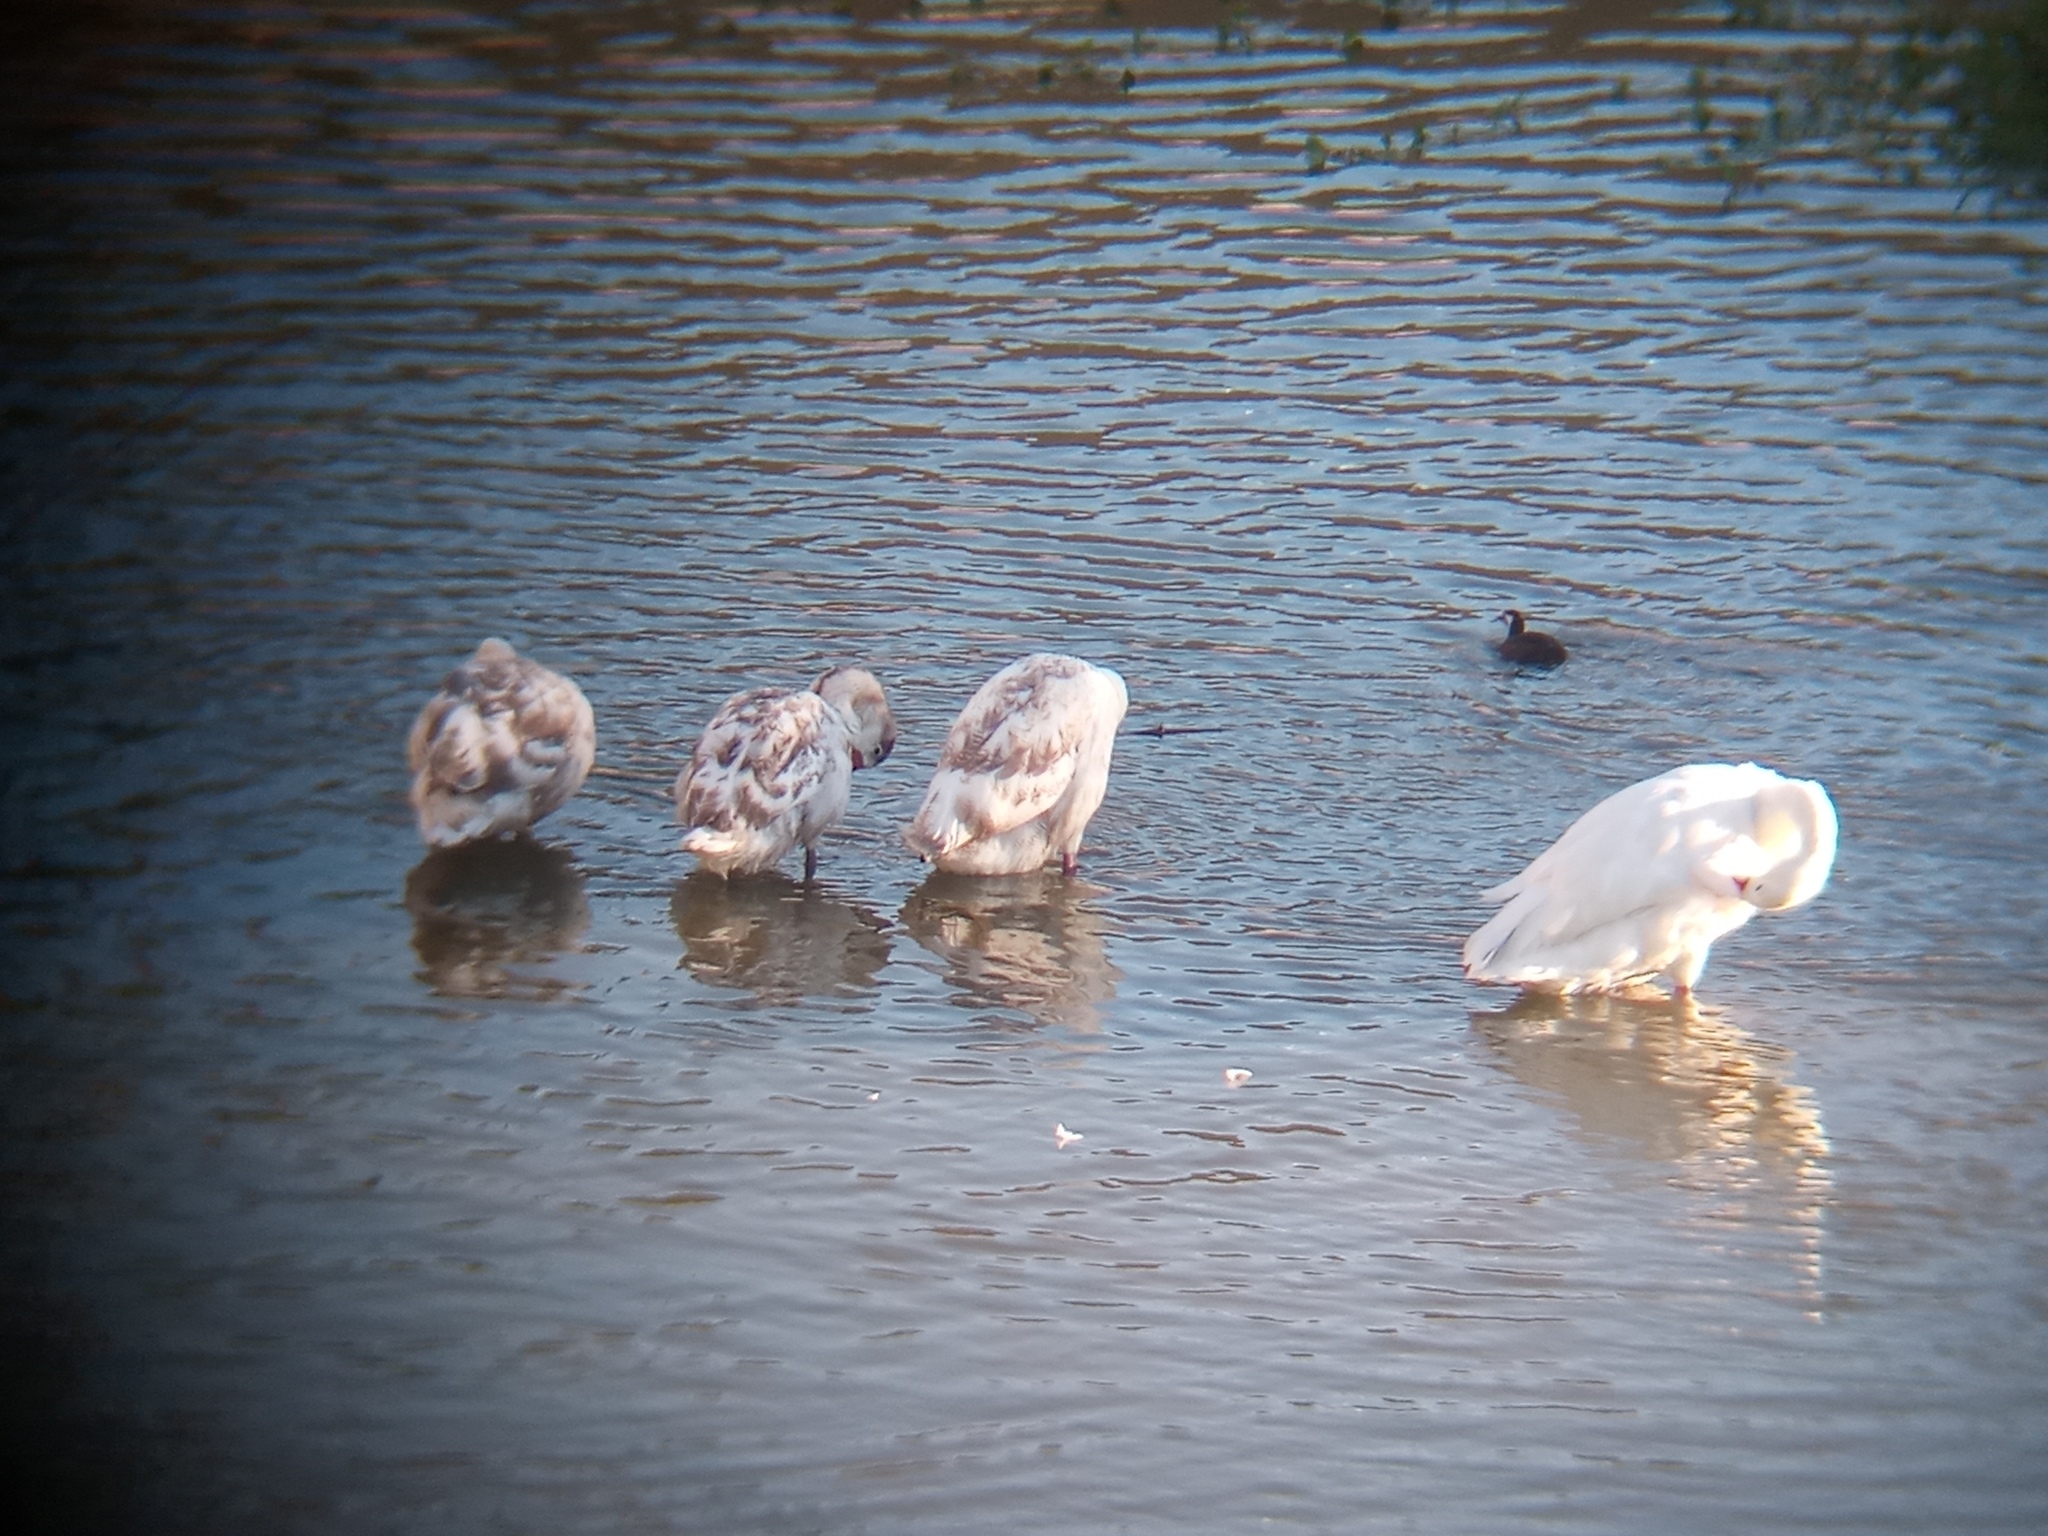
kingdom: Animalia
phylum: Chordata
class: Aves
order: Anseriformes
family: Anatidae
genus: Coscoroba
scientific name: Coscoroba coscoroba
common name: Coscoroba swan
